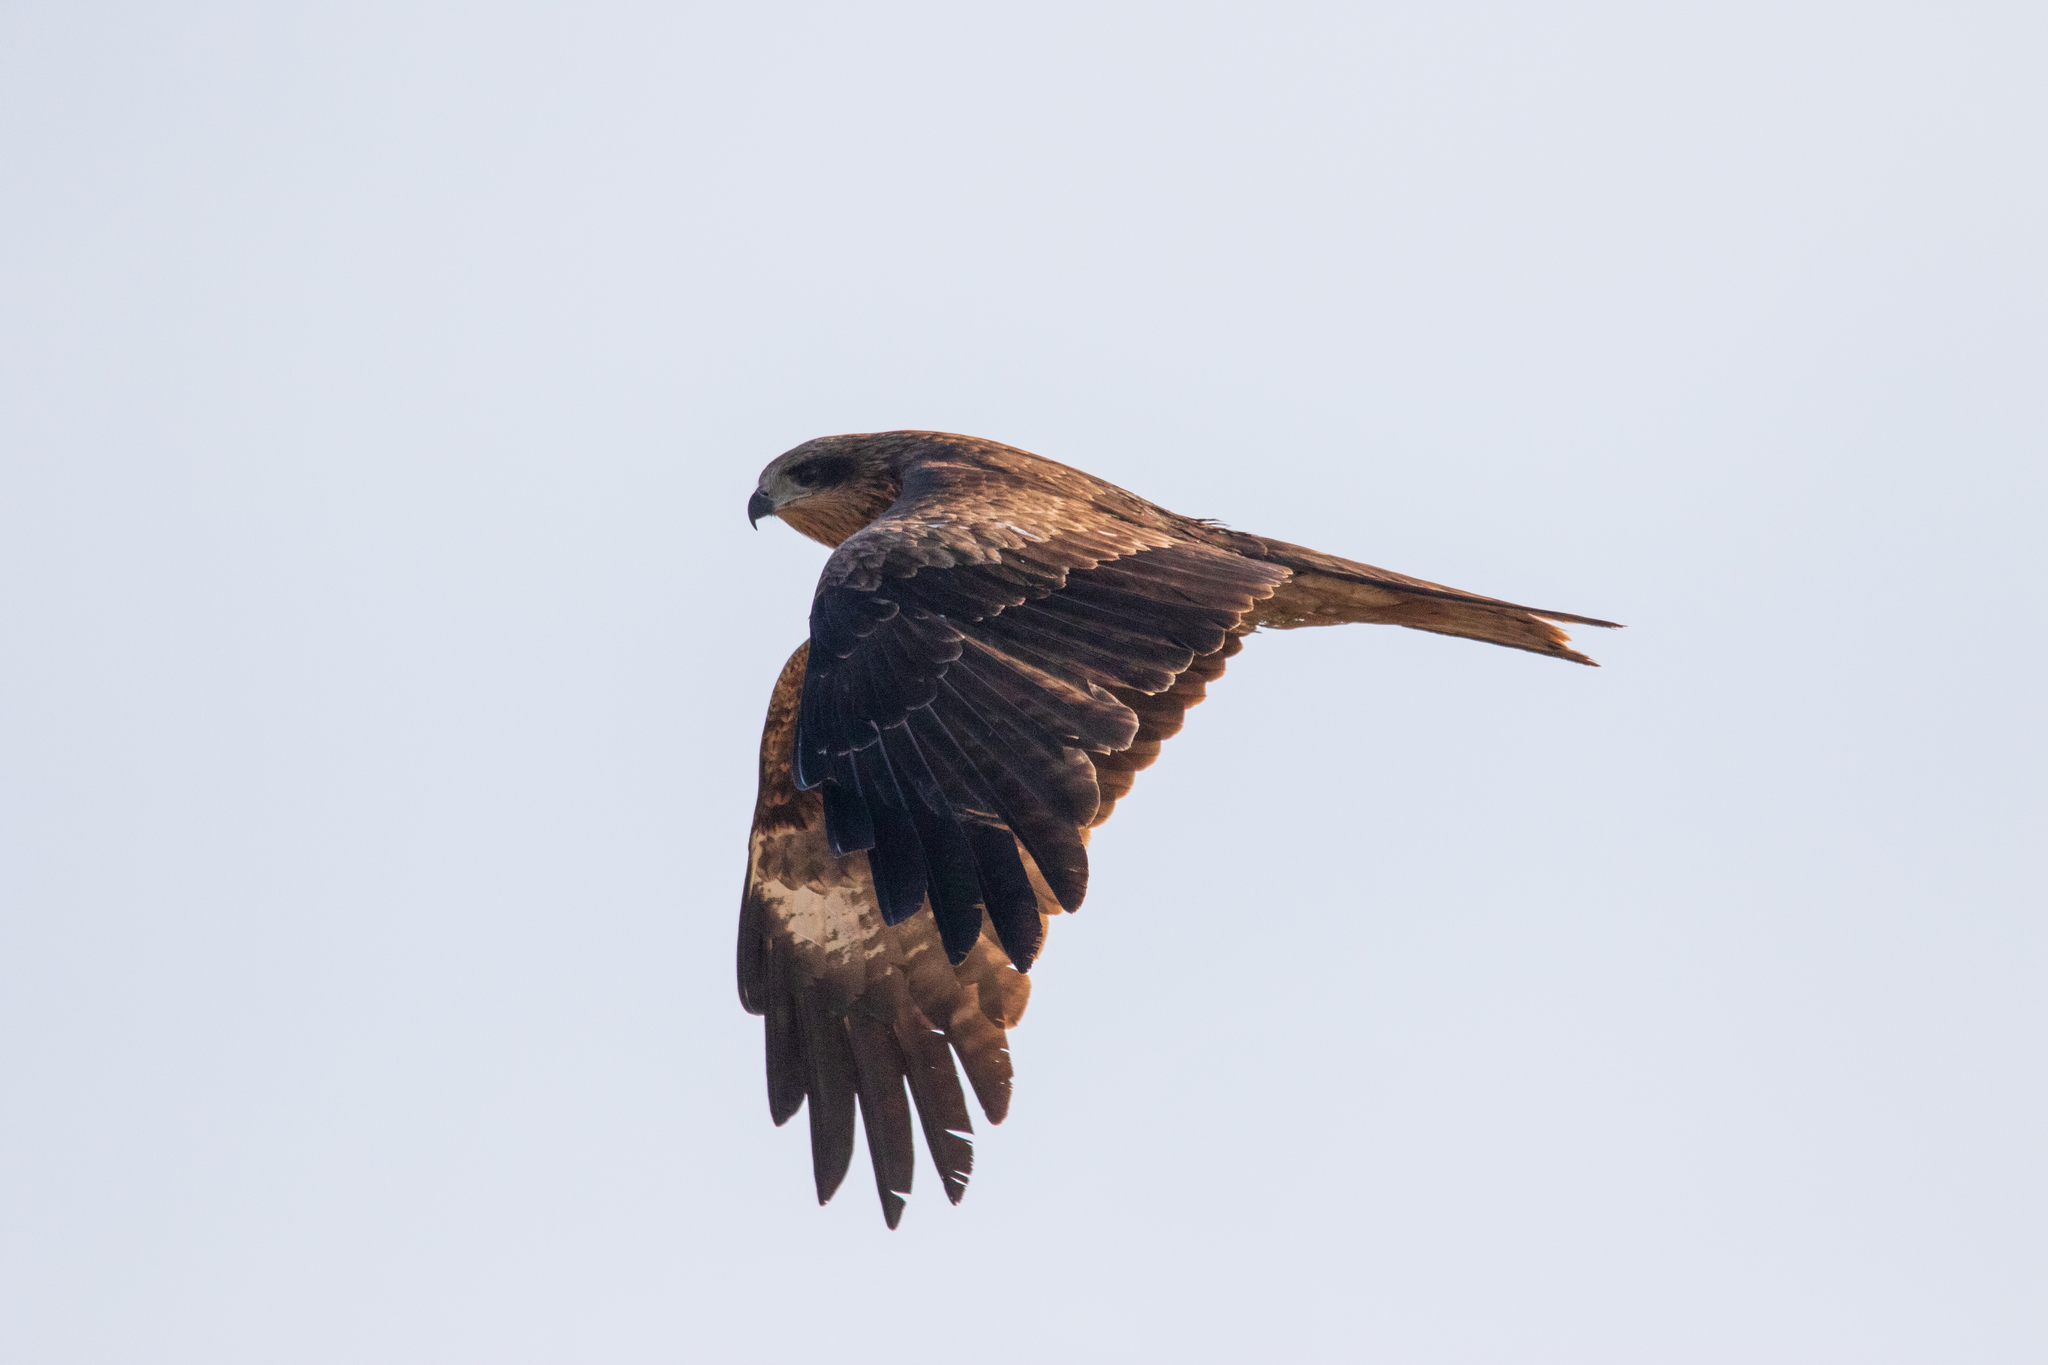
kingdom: Animalia
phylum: Chordata
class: Aves
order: Accipitriformes
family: Accipitridae
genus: Milvus
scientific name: Milvus migrans
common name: Black kite
